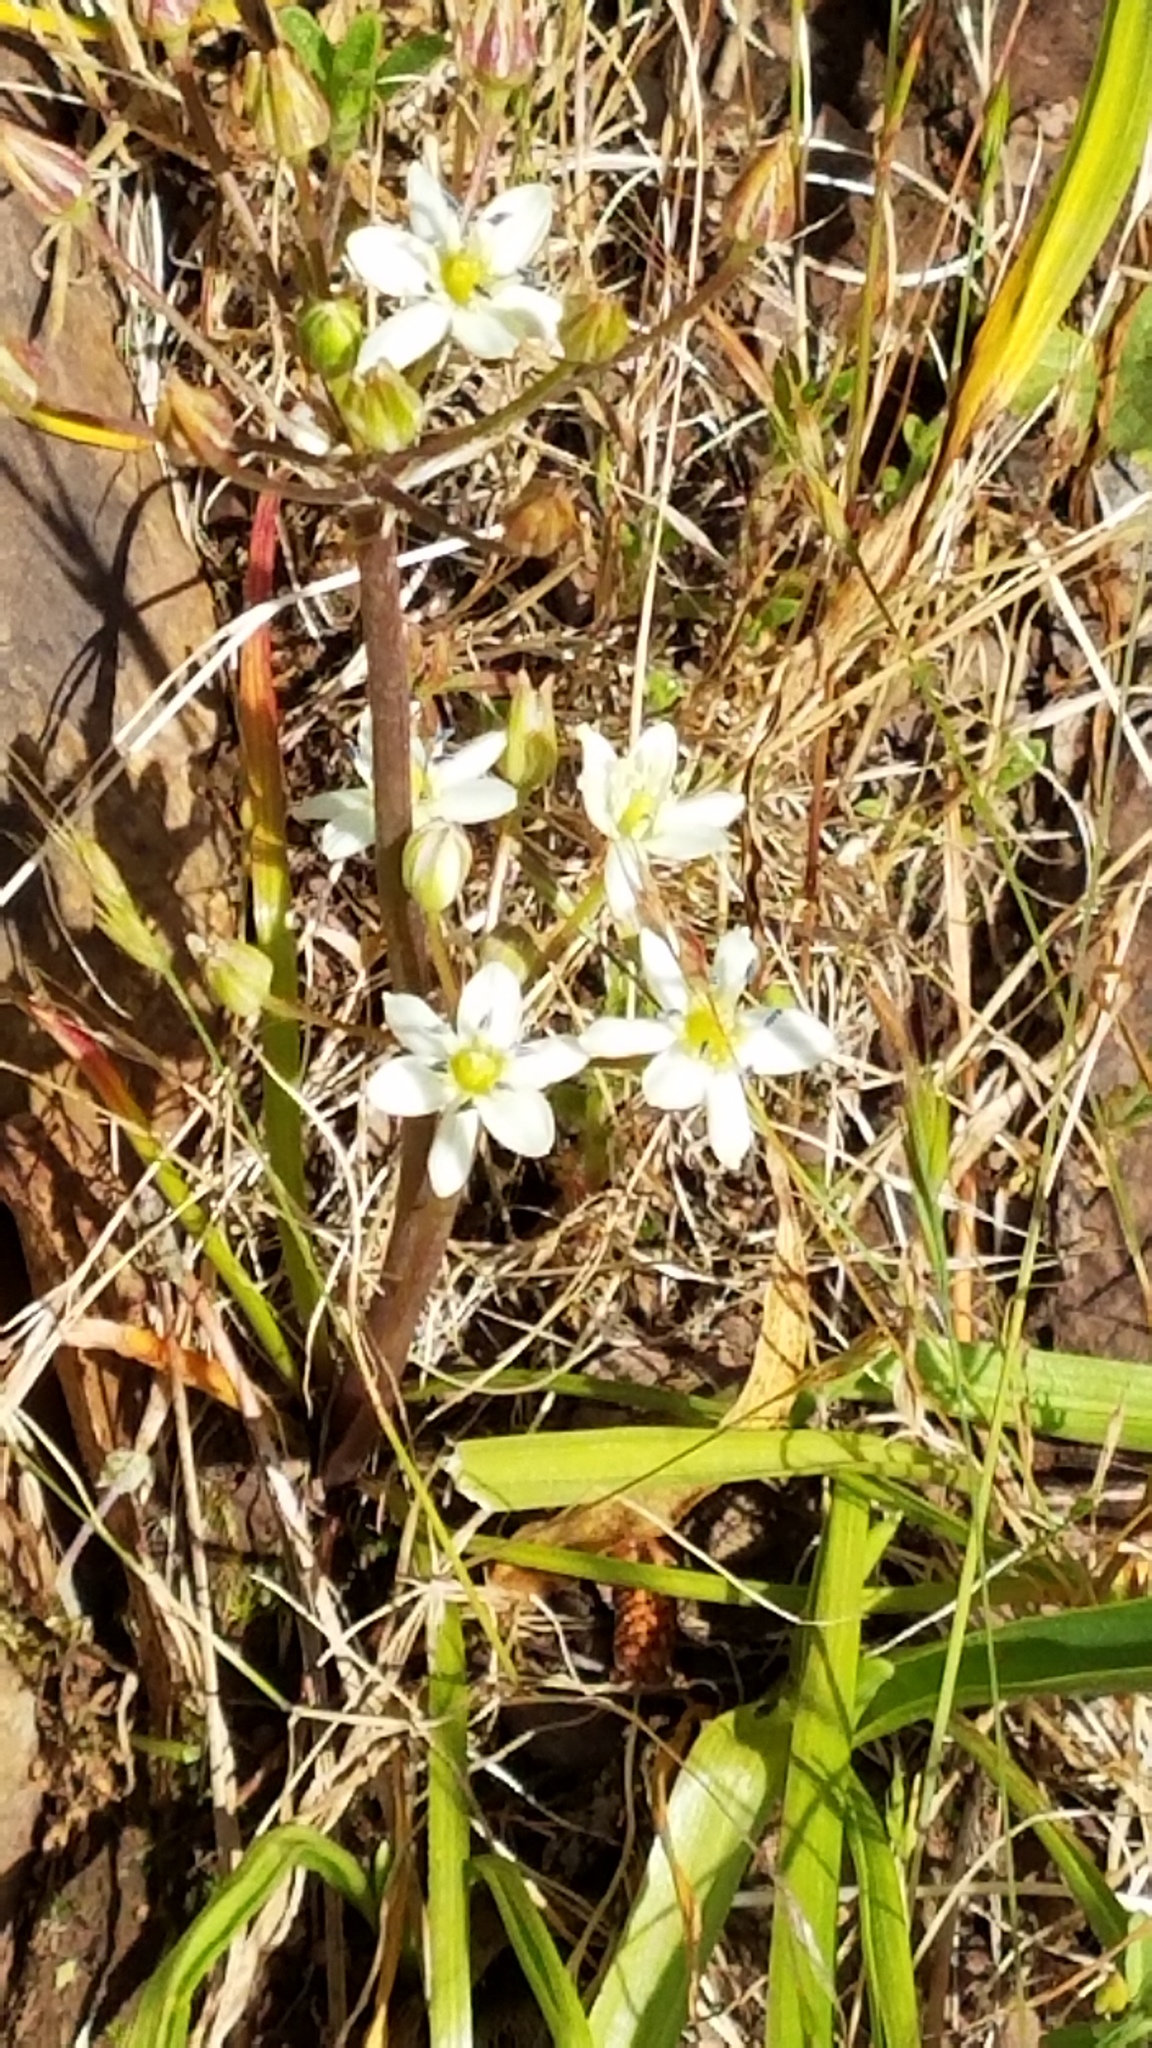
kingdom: Plantae
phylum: Tracheophyta
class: Liliopsida
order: Asparagales
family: Asparagaceae
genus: Muilla
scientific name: Muilla maritima
